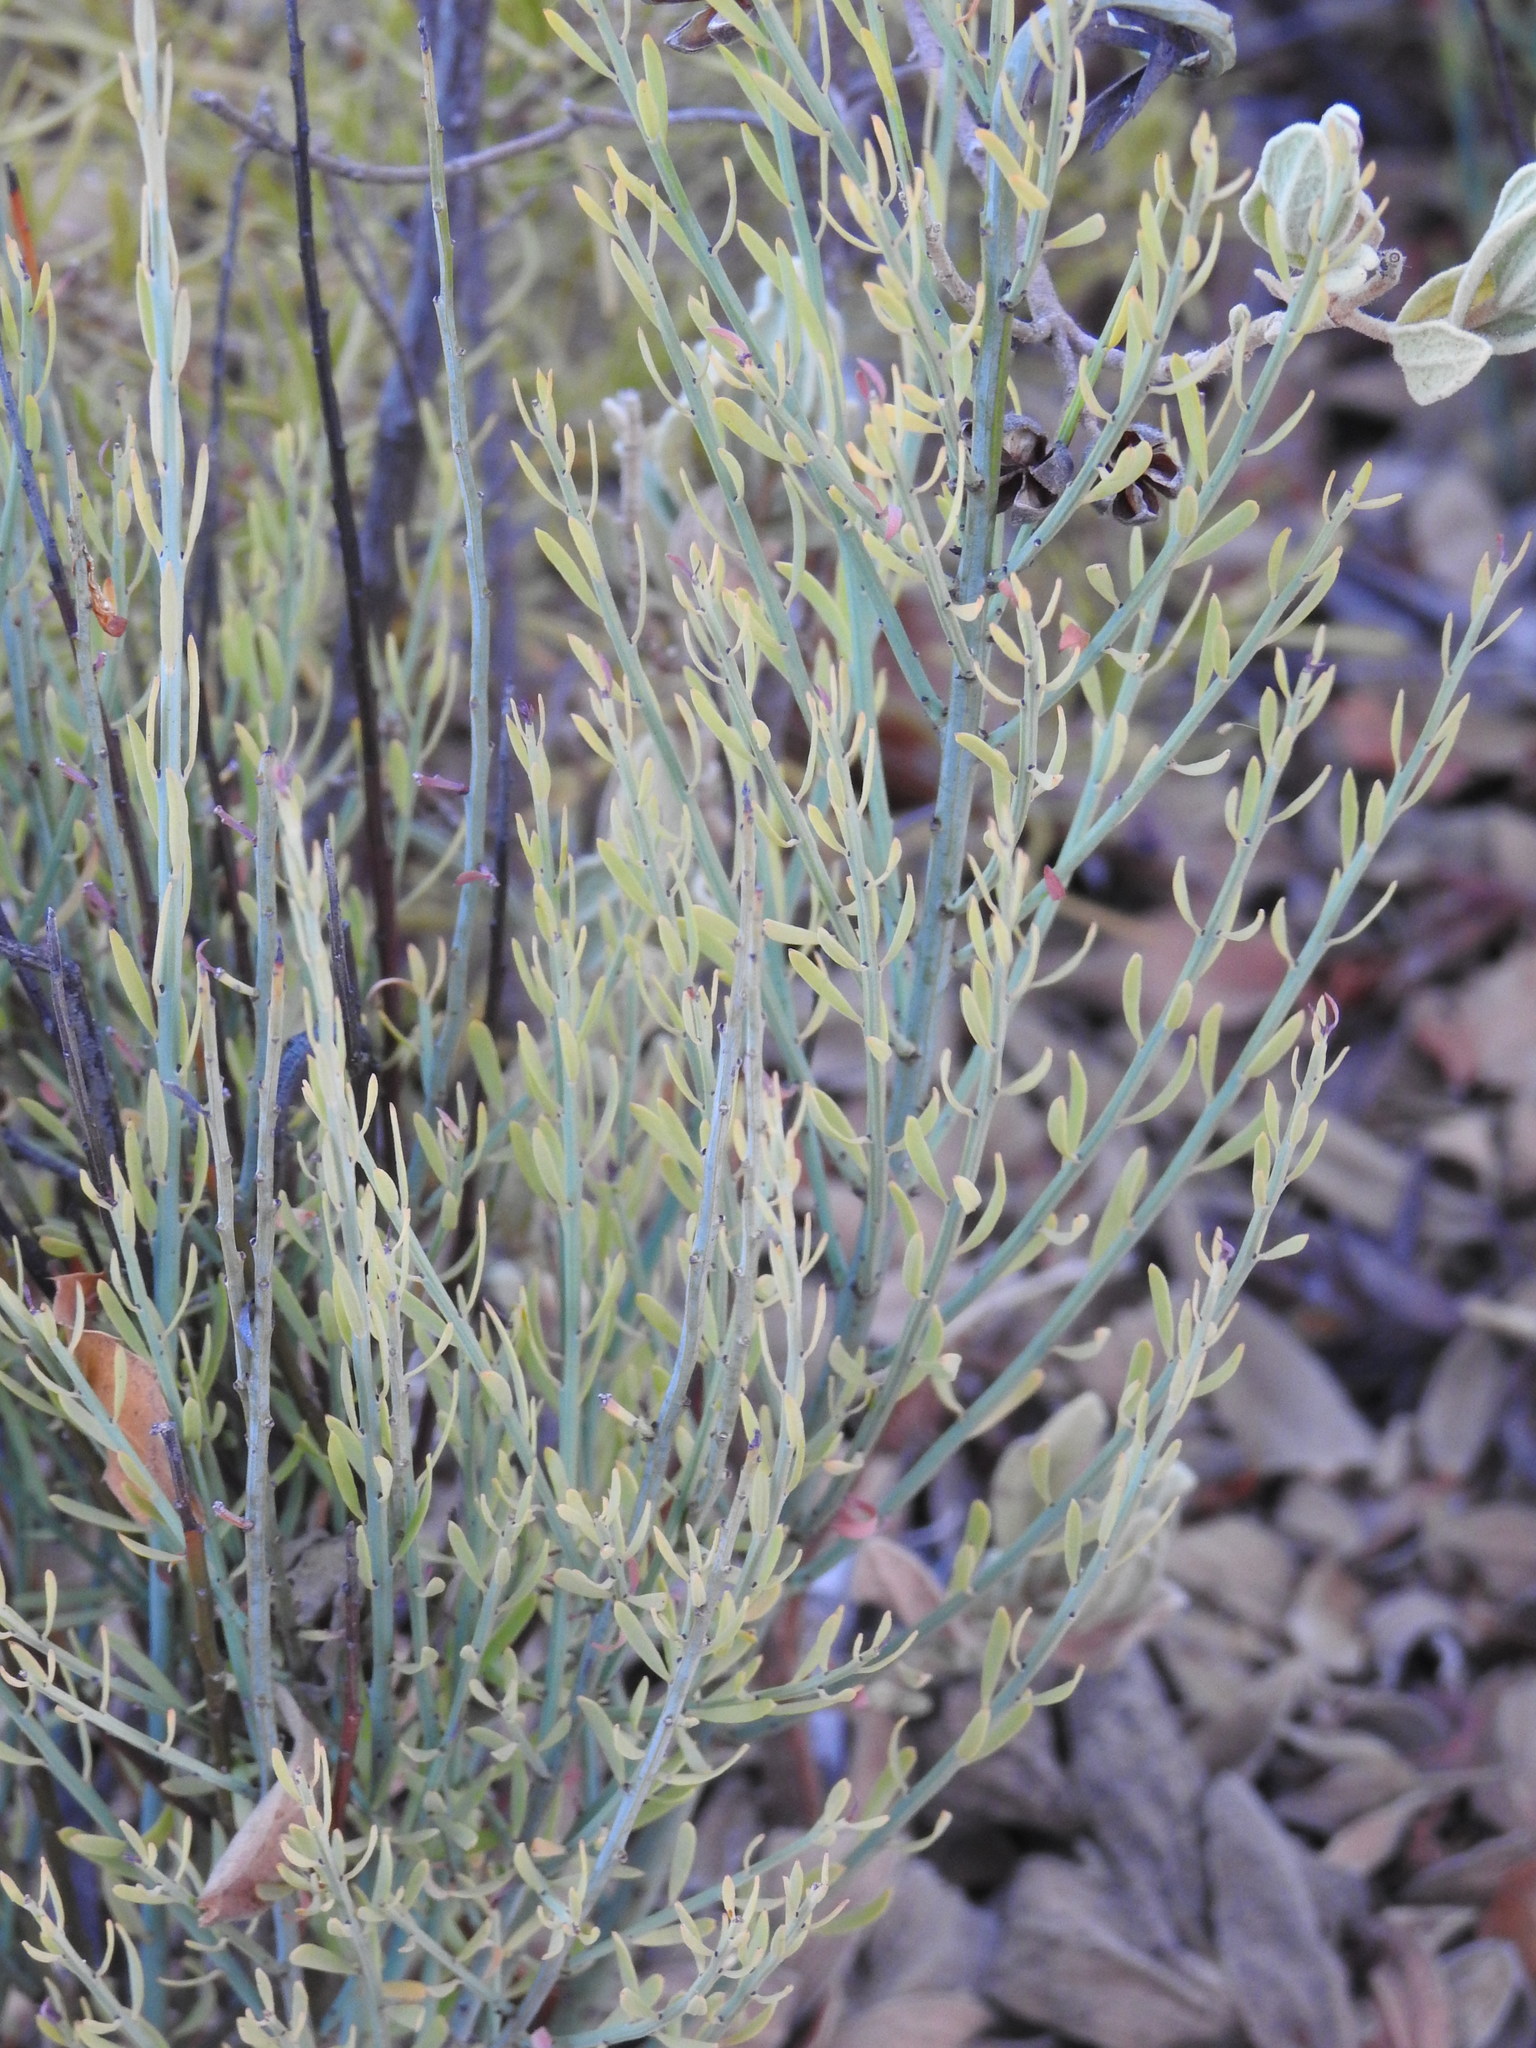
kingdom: Plantae
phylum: Tracheophyta
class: Magnoliopsida
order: Santalales
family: Santalaceae
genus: Osyris
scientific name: Osyris alba
